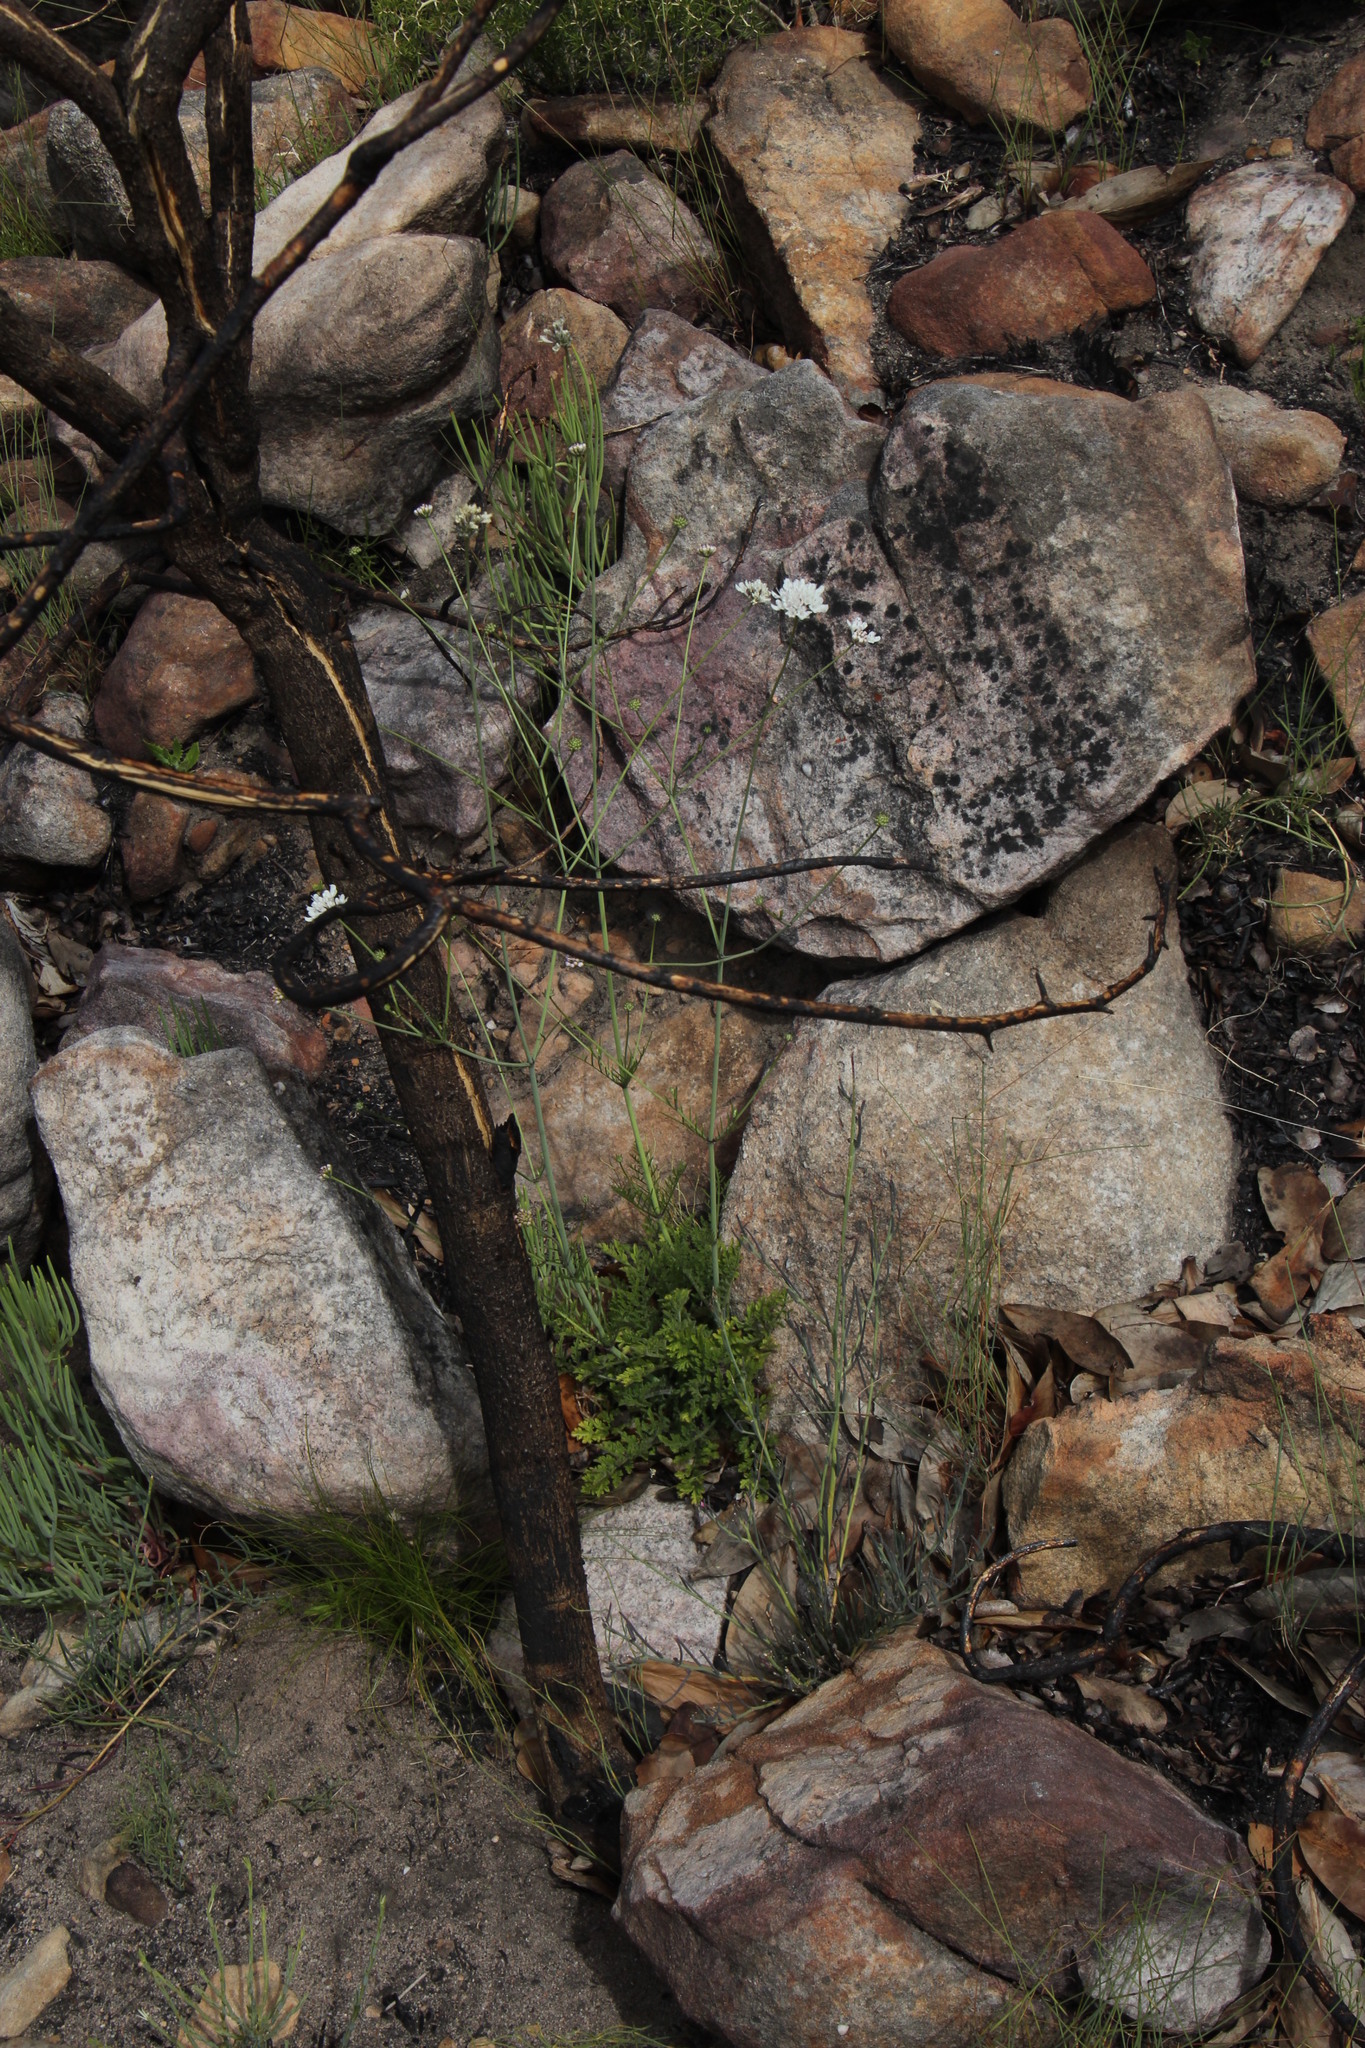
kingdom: Plantae
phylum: Tracheophyta
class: Magnoliopsida
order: Dipsacales
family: Caprifoliaceae
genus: Scabiosa
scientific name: Scabiosa columbaria
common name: Small scabious
